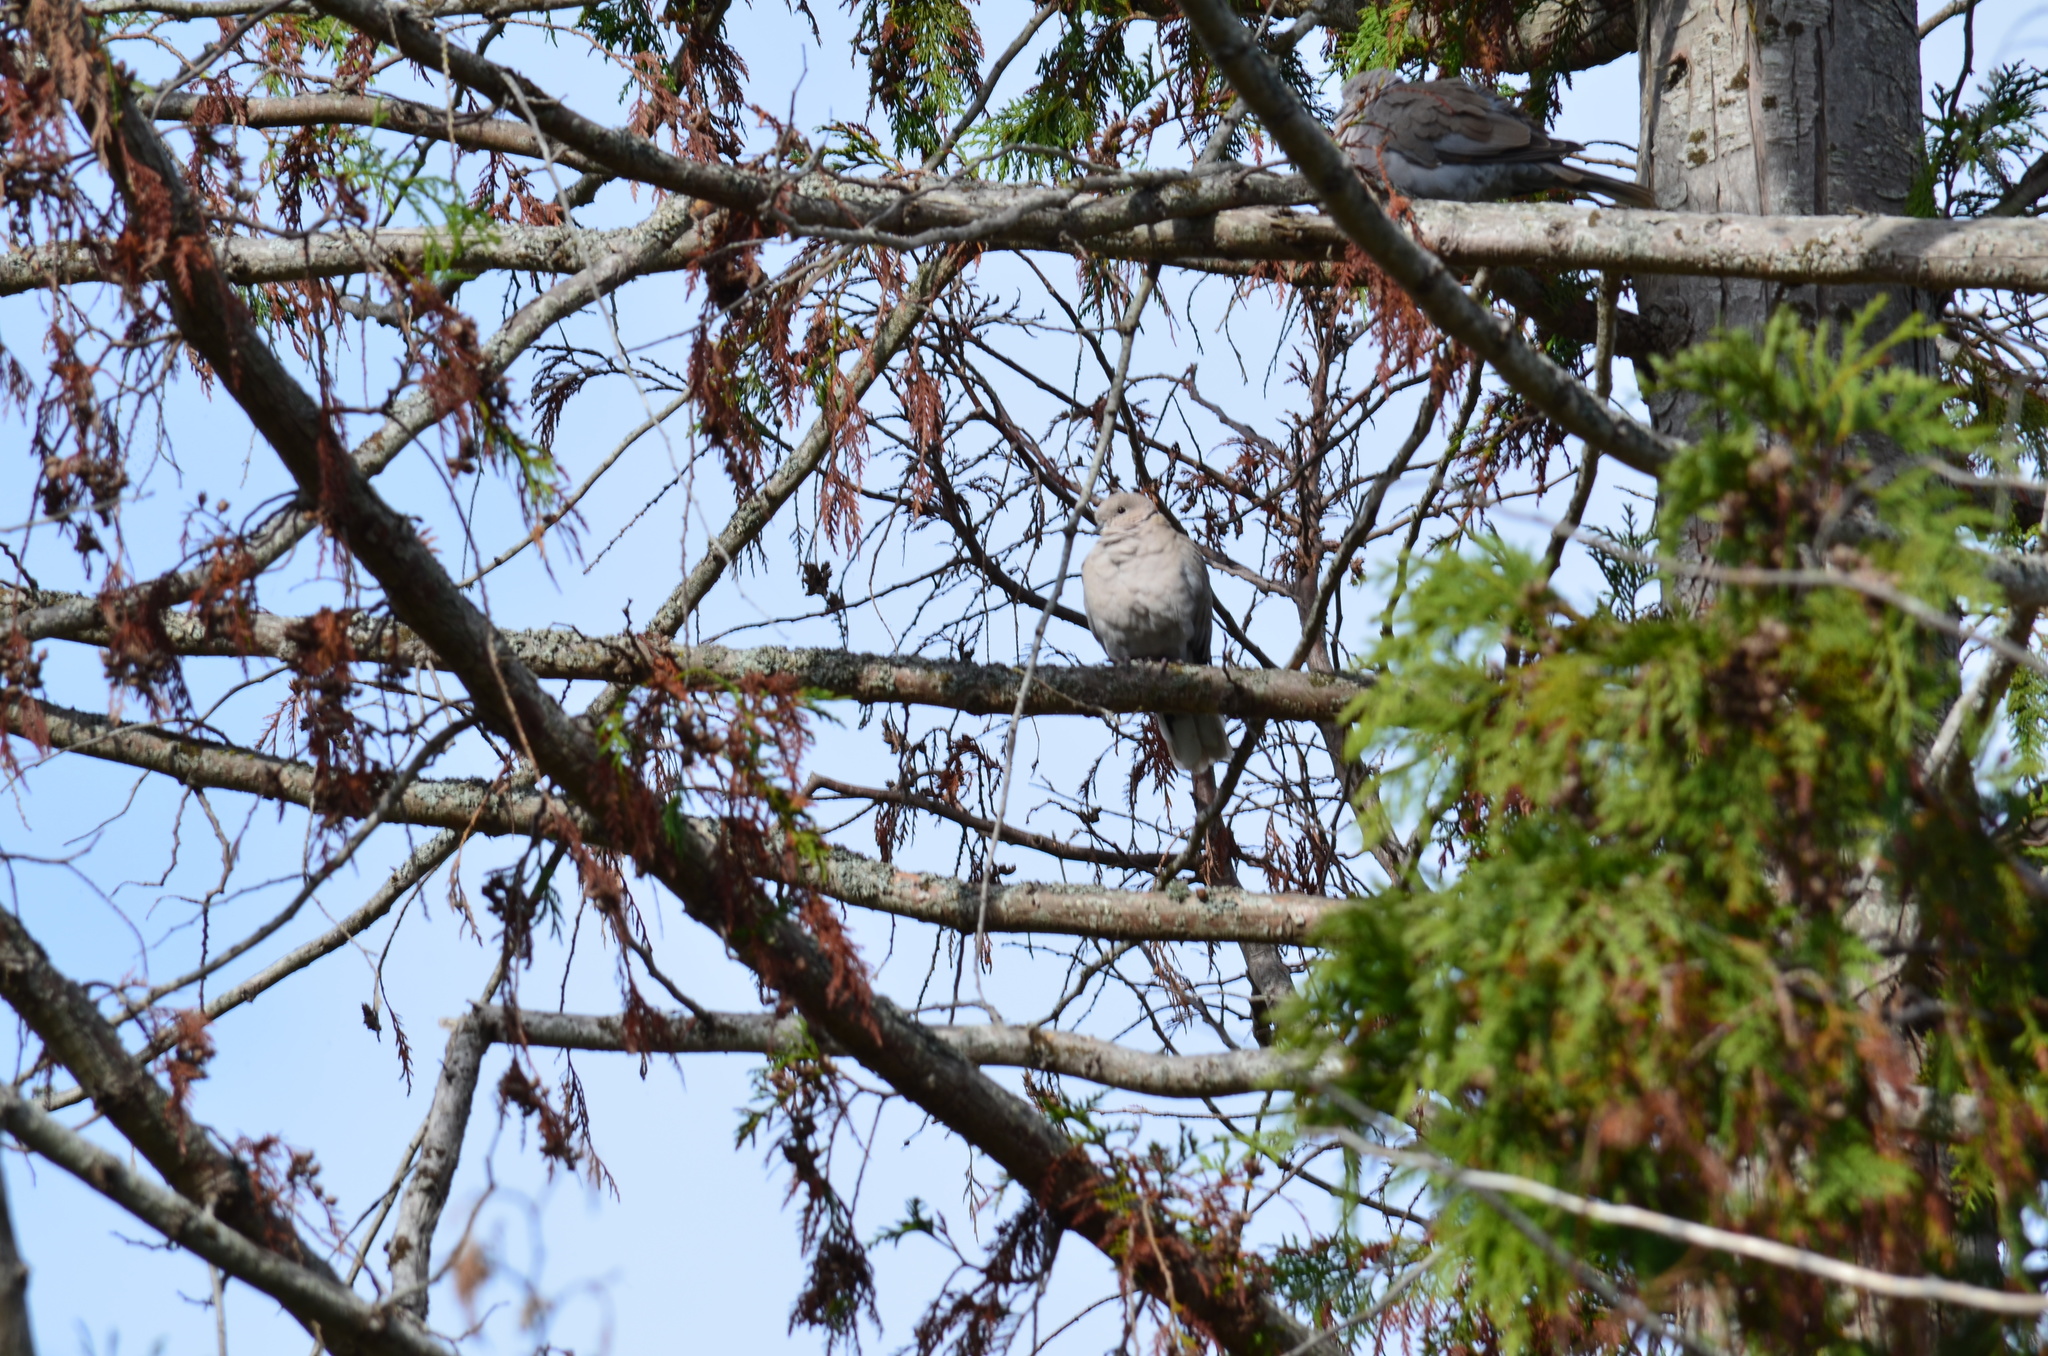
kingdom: Animalia
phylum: Chordata
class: Aves
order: Columbiformes
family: Columbidae
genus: Streptopelia
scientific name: Streptopelia decaocto
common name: Eurasian collared dove
